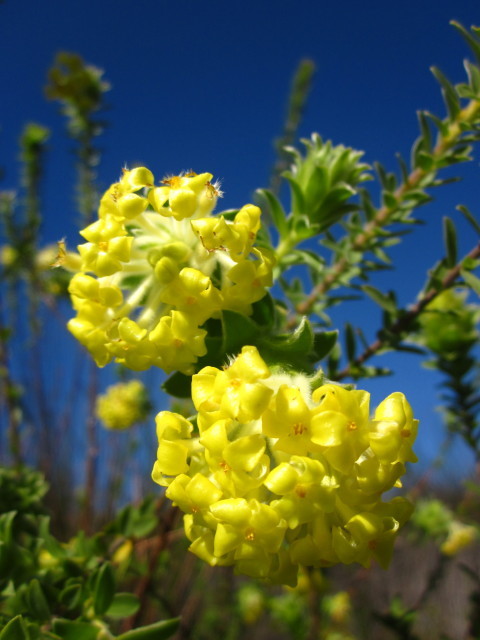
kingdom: Plantae
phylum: Tracheophyta
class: Magnoliopsida
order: Malvales
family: Thymelaeaceae
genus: Gnidia
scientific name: Gnidia anthylloides
